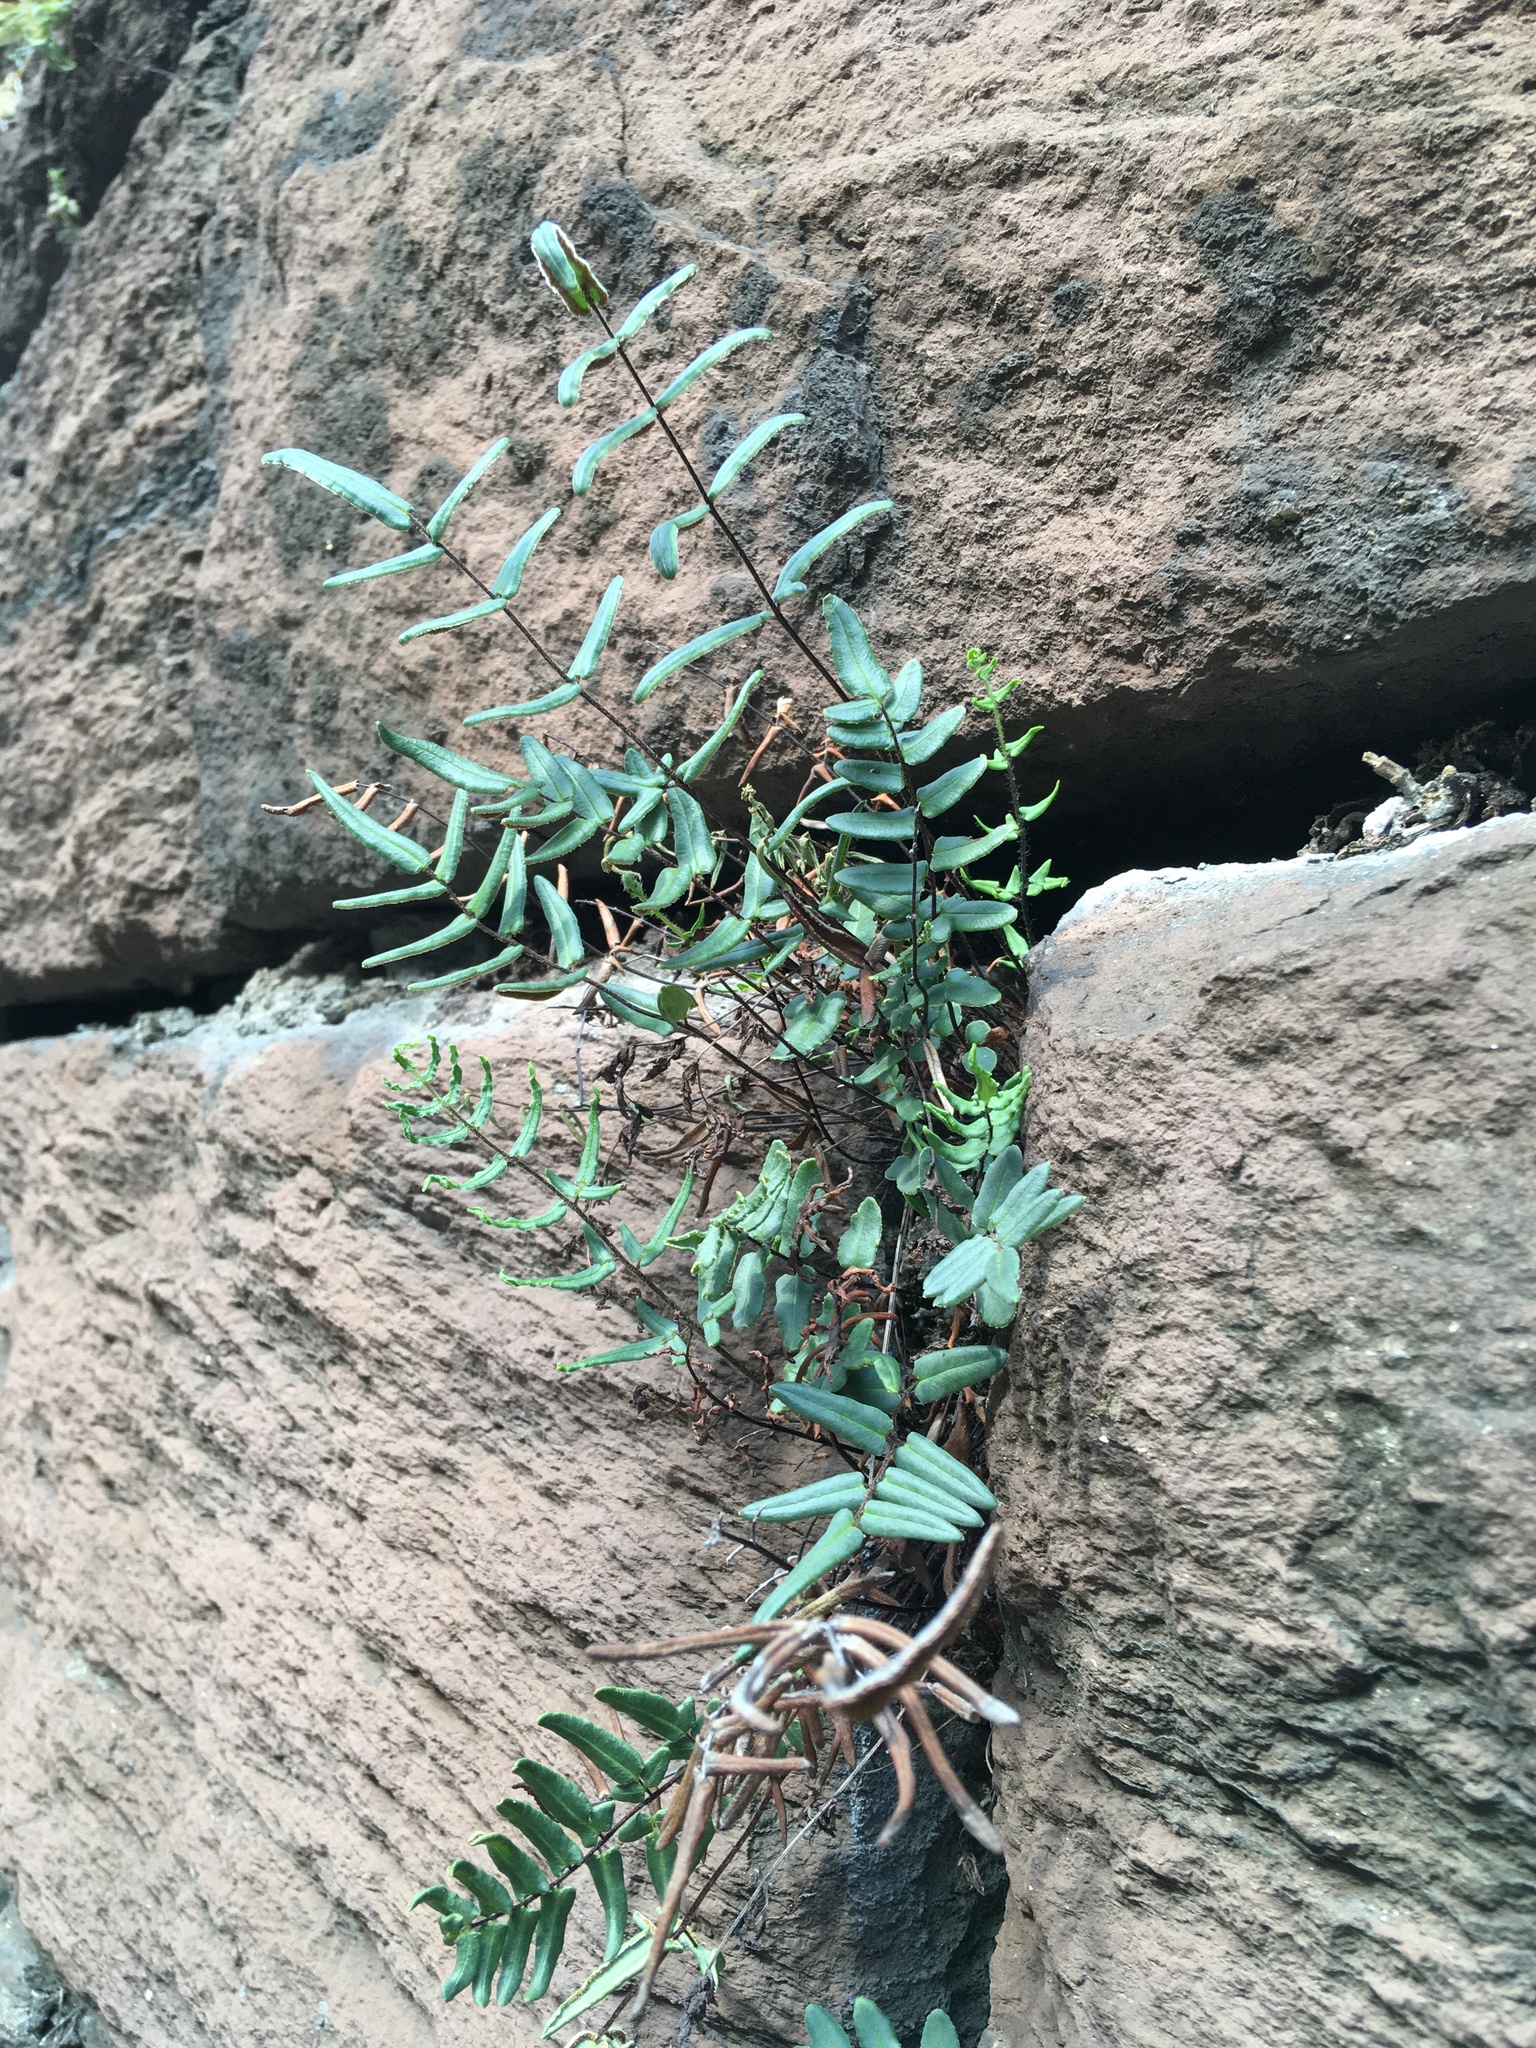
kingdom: Plantae
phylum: Tracheophyta
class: Polypodiopsida
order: Polypodiales
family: Pteridaceae
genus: Pellaea
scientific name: Pellaea atropurpurea
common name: Hairy cliffbrake
